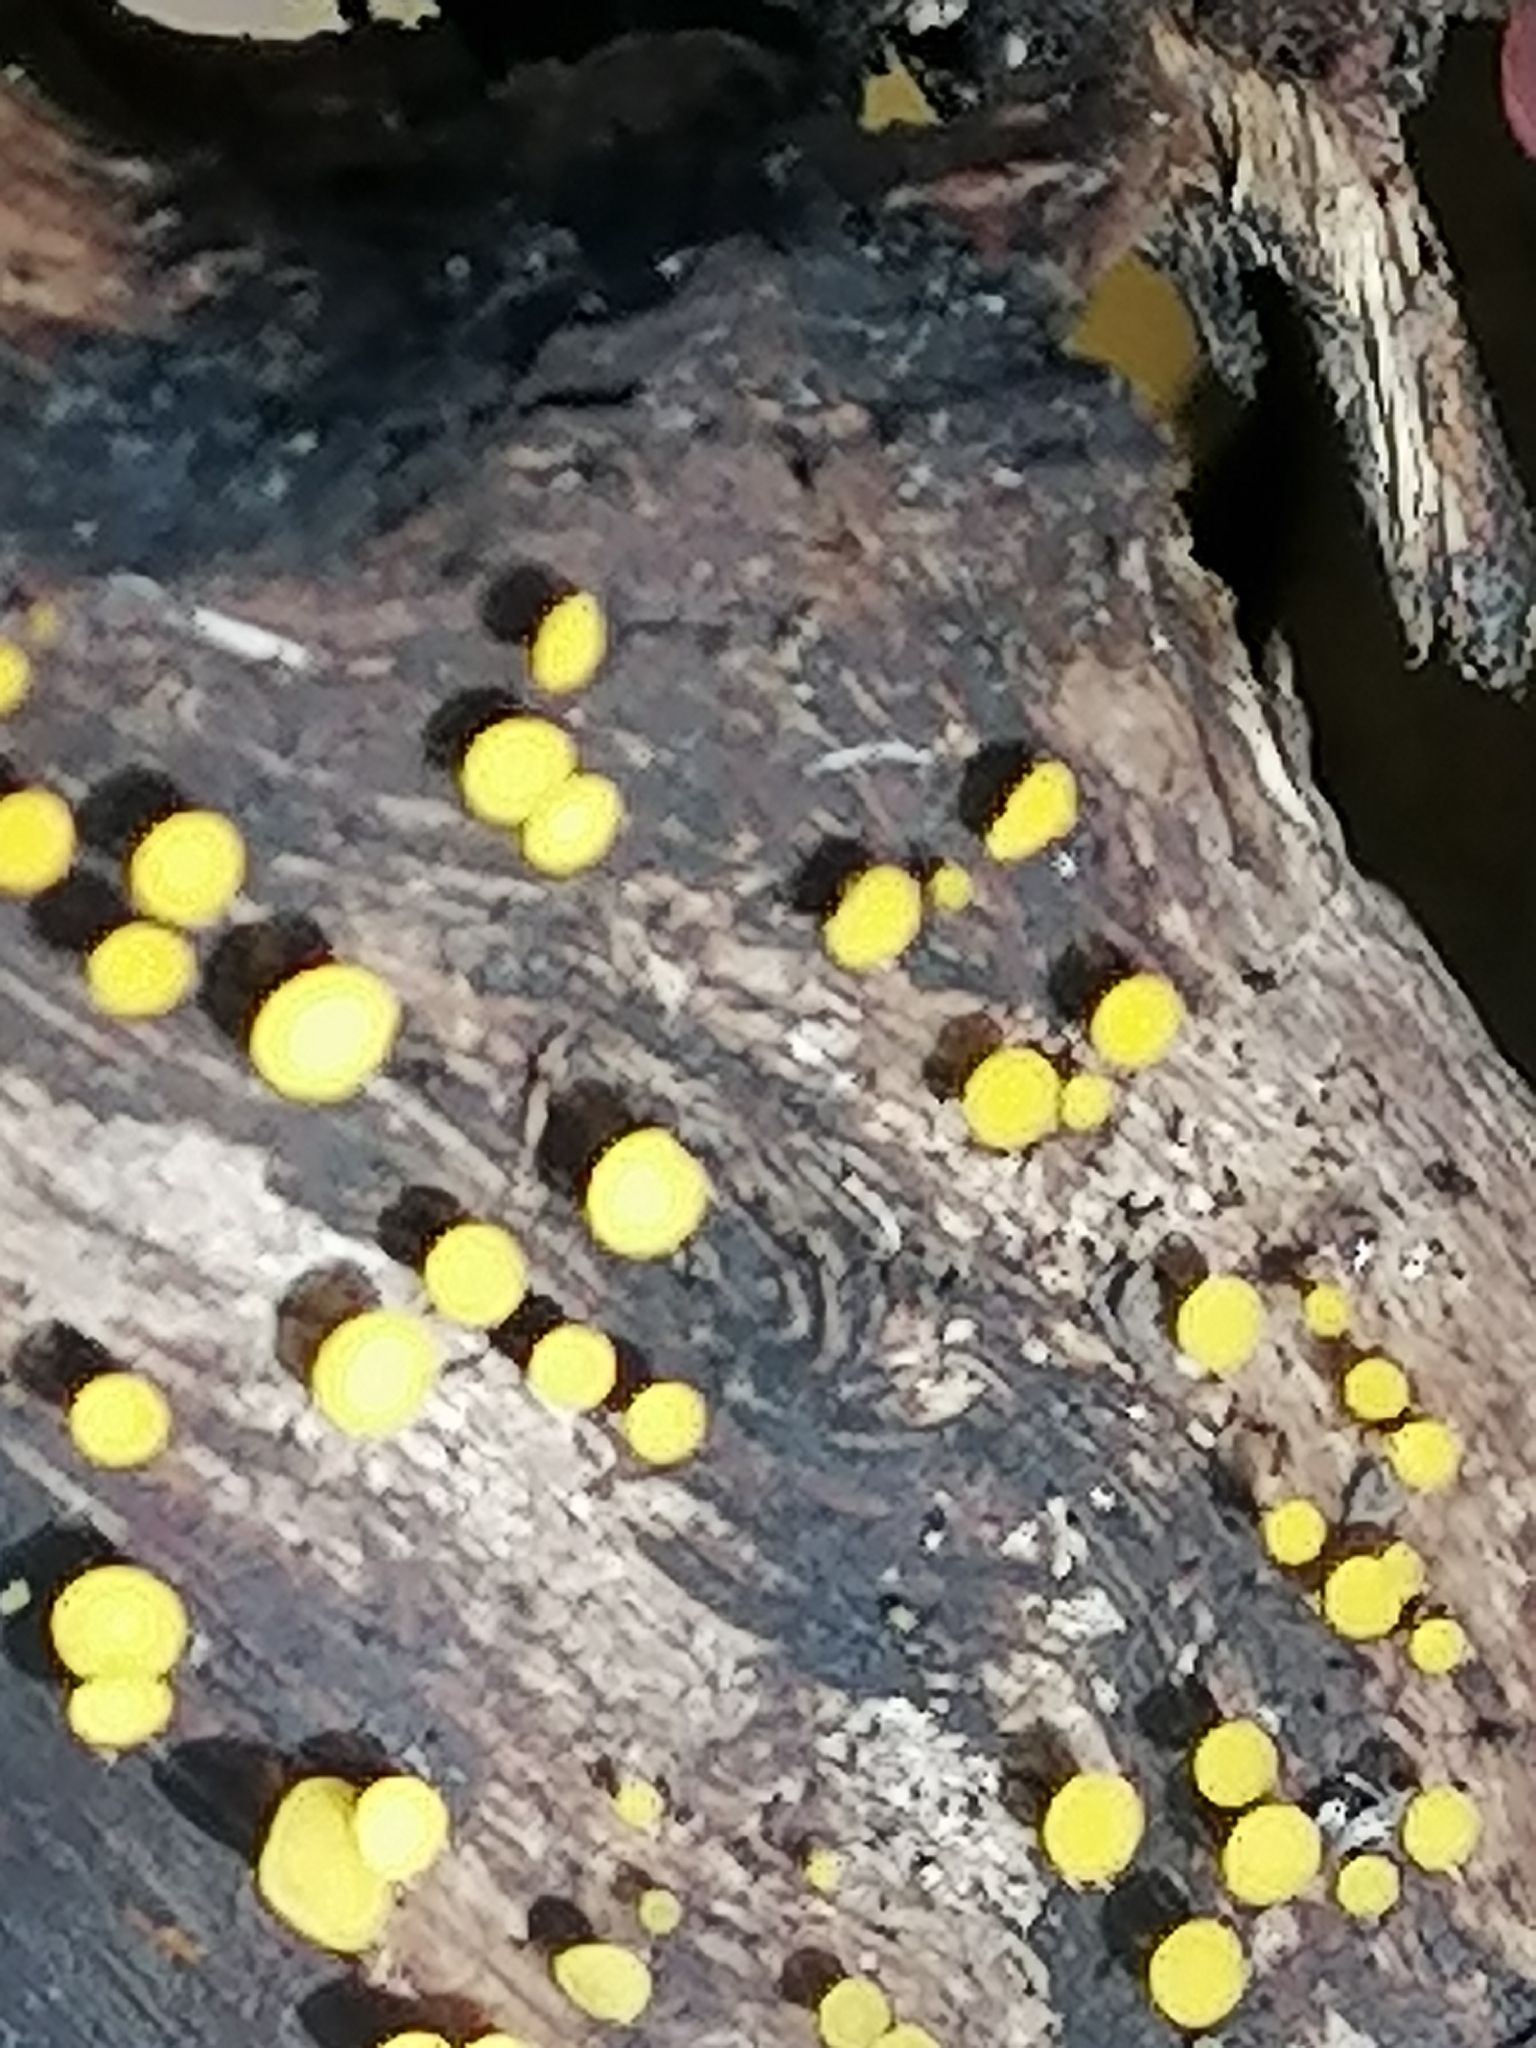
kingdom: Fungi
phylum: Ascomycota
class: Leotiomycetes
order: Helotiales
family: Pezizellaceae
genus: Calycina
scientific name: Calycina citrina
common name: Yellow fairy cups
